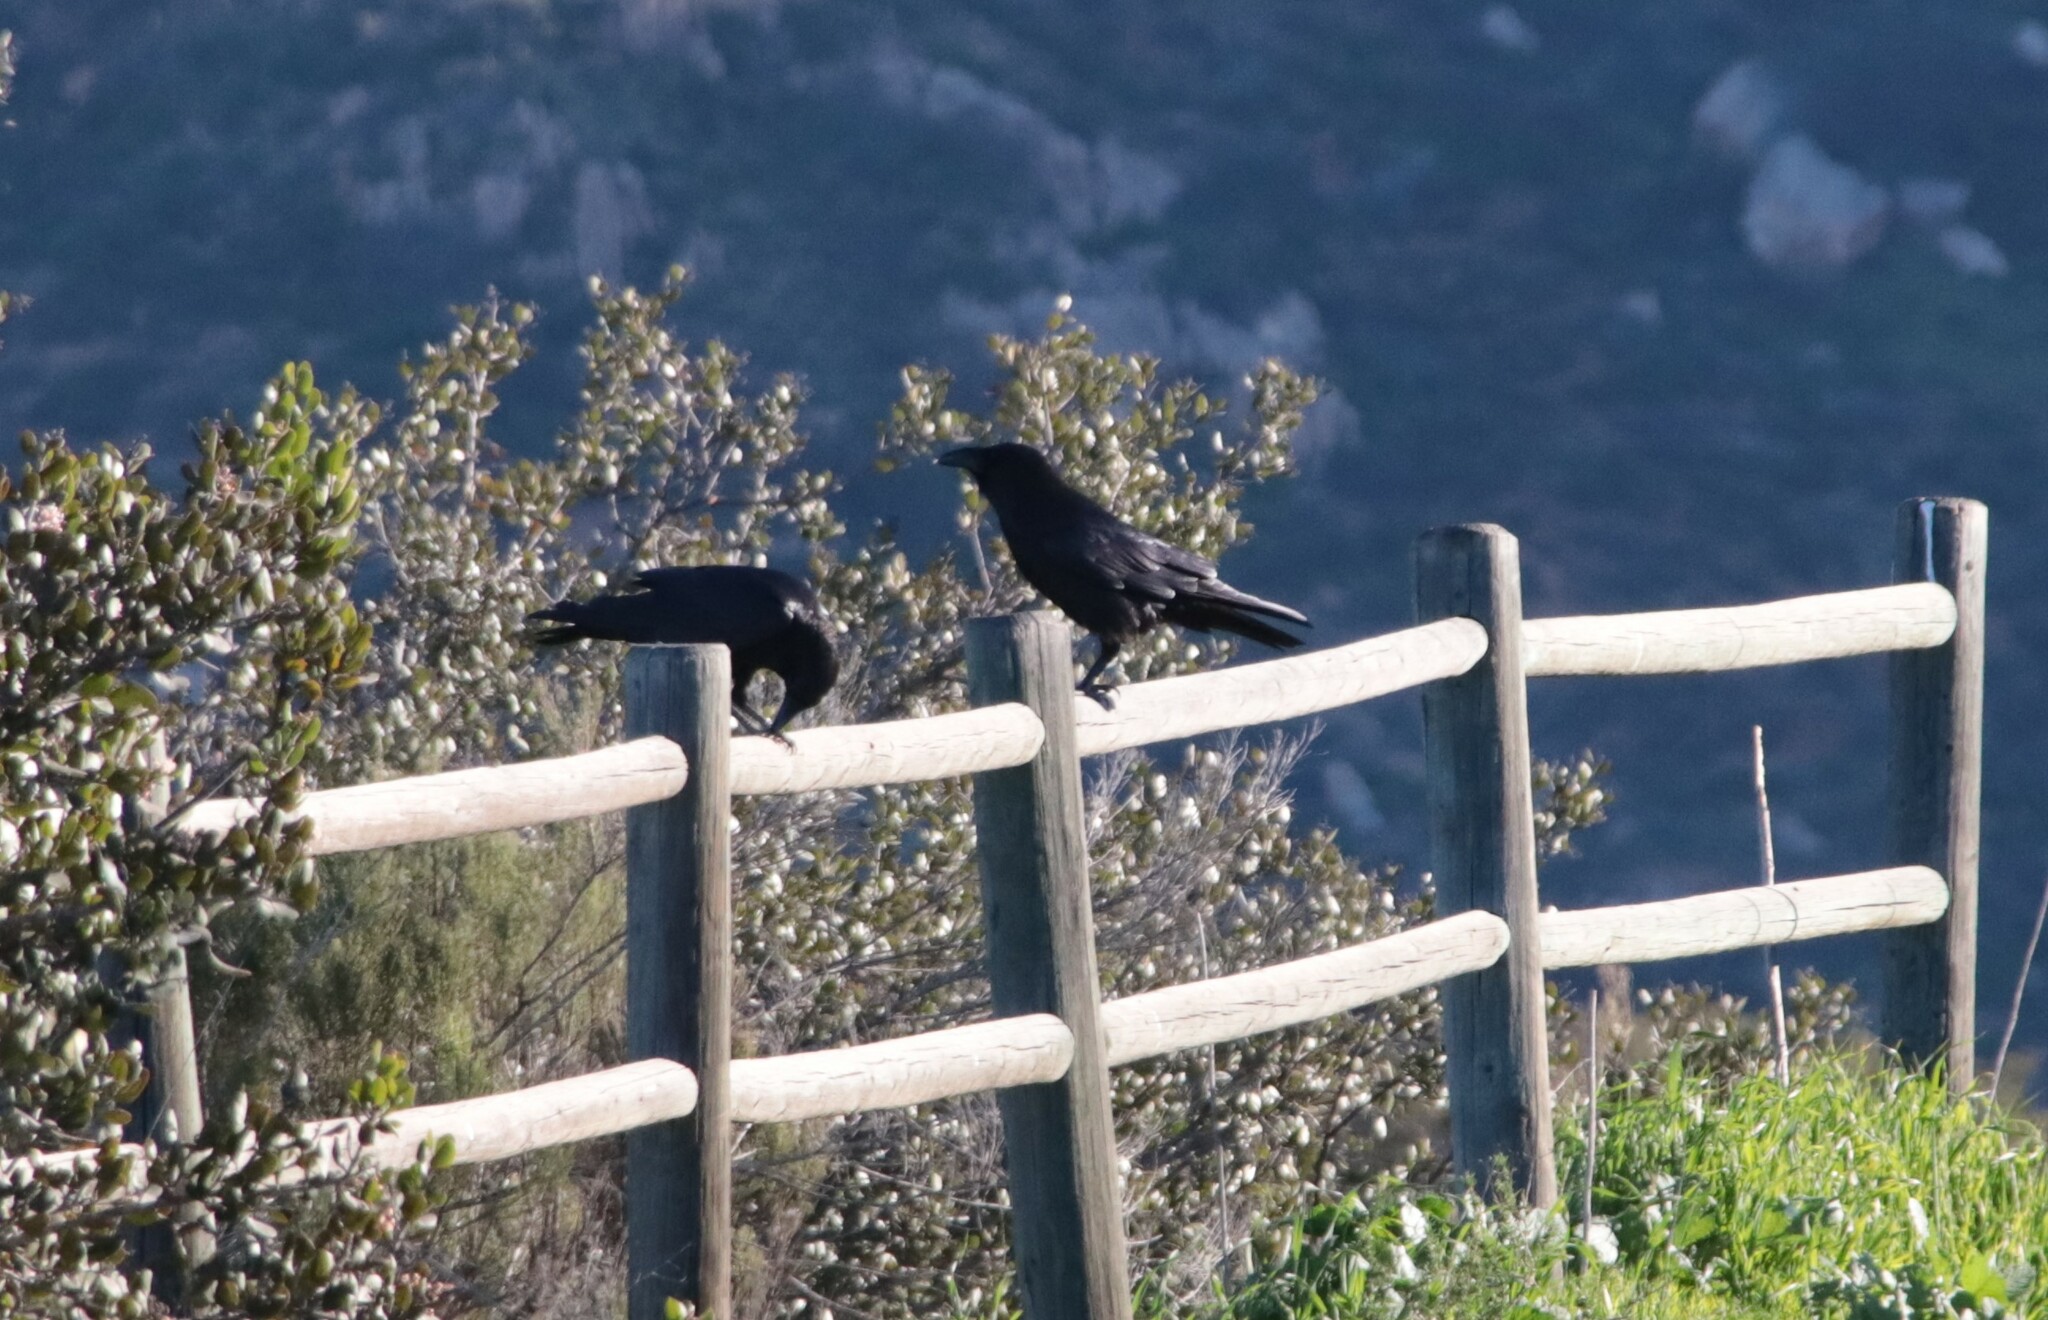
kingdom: Animalia
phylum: Chordata
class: Aves
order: Passeriformes
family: Corvidae
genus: Corvus
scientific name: Corvus corax
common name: Common raven
